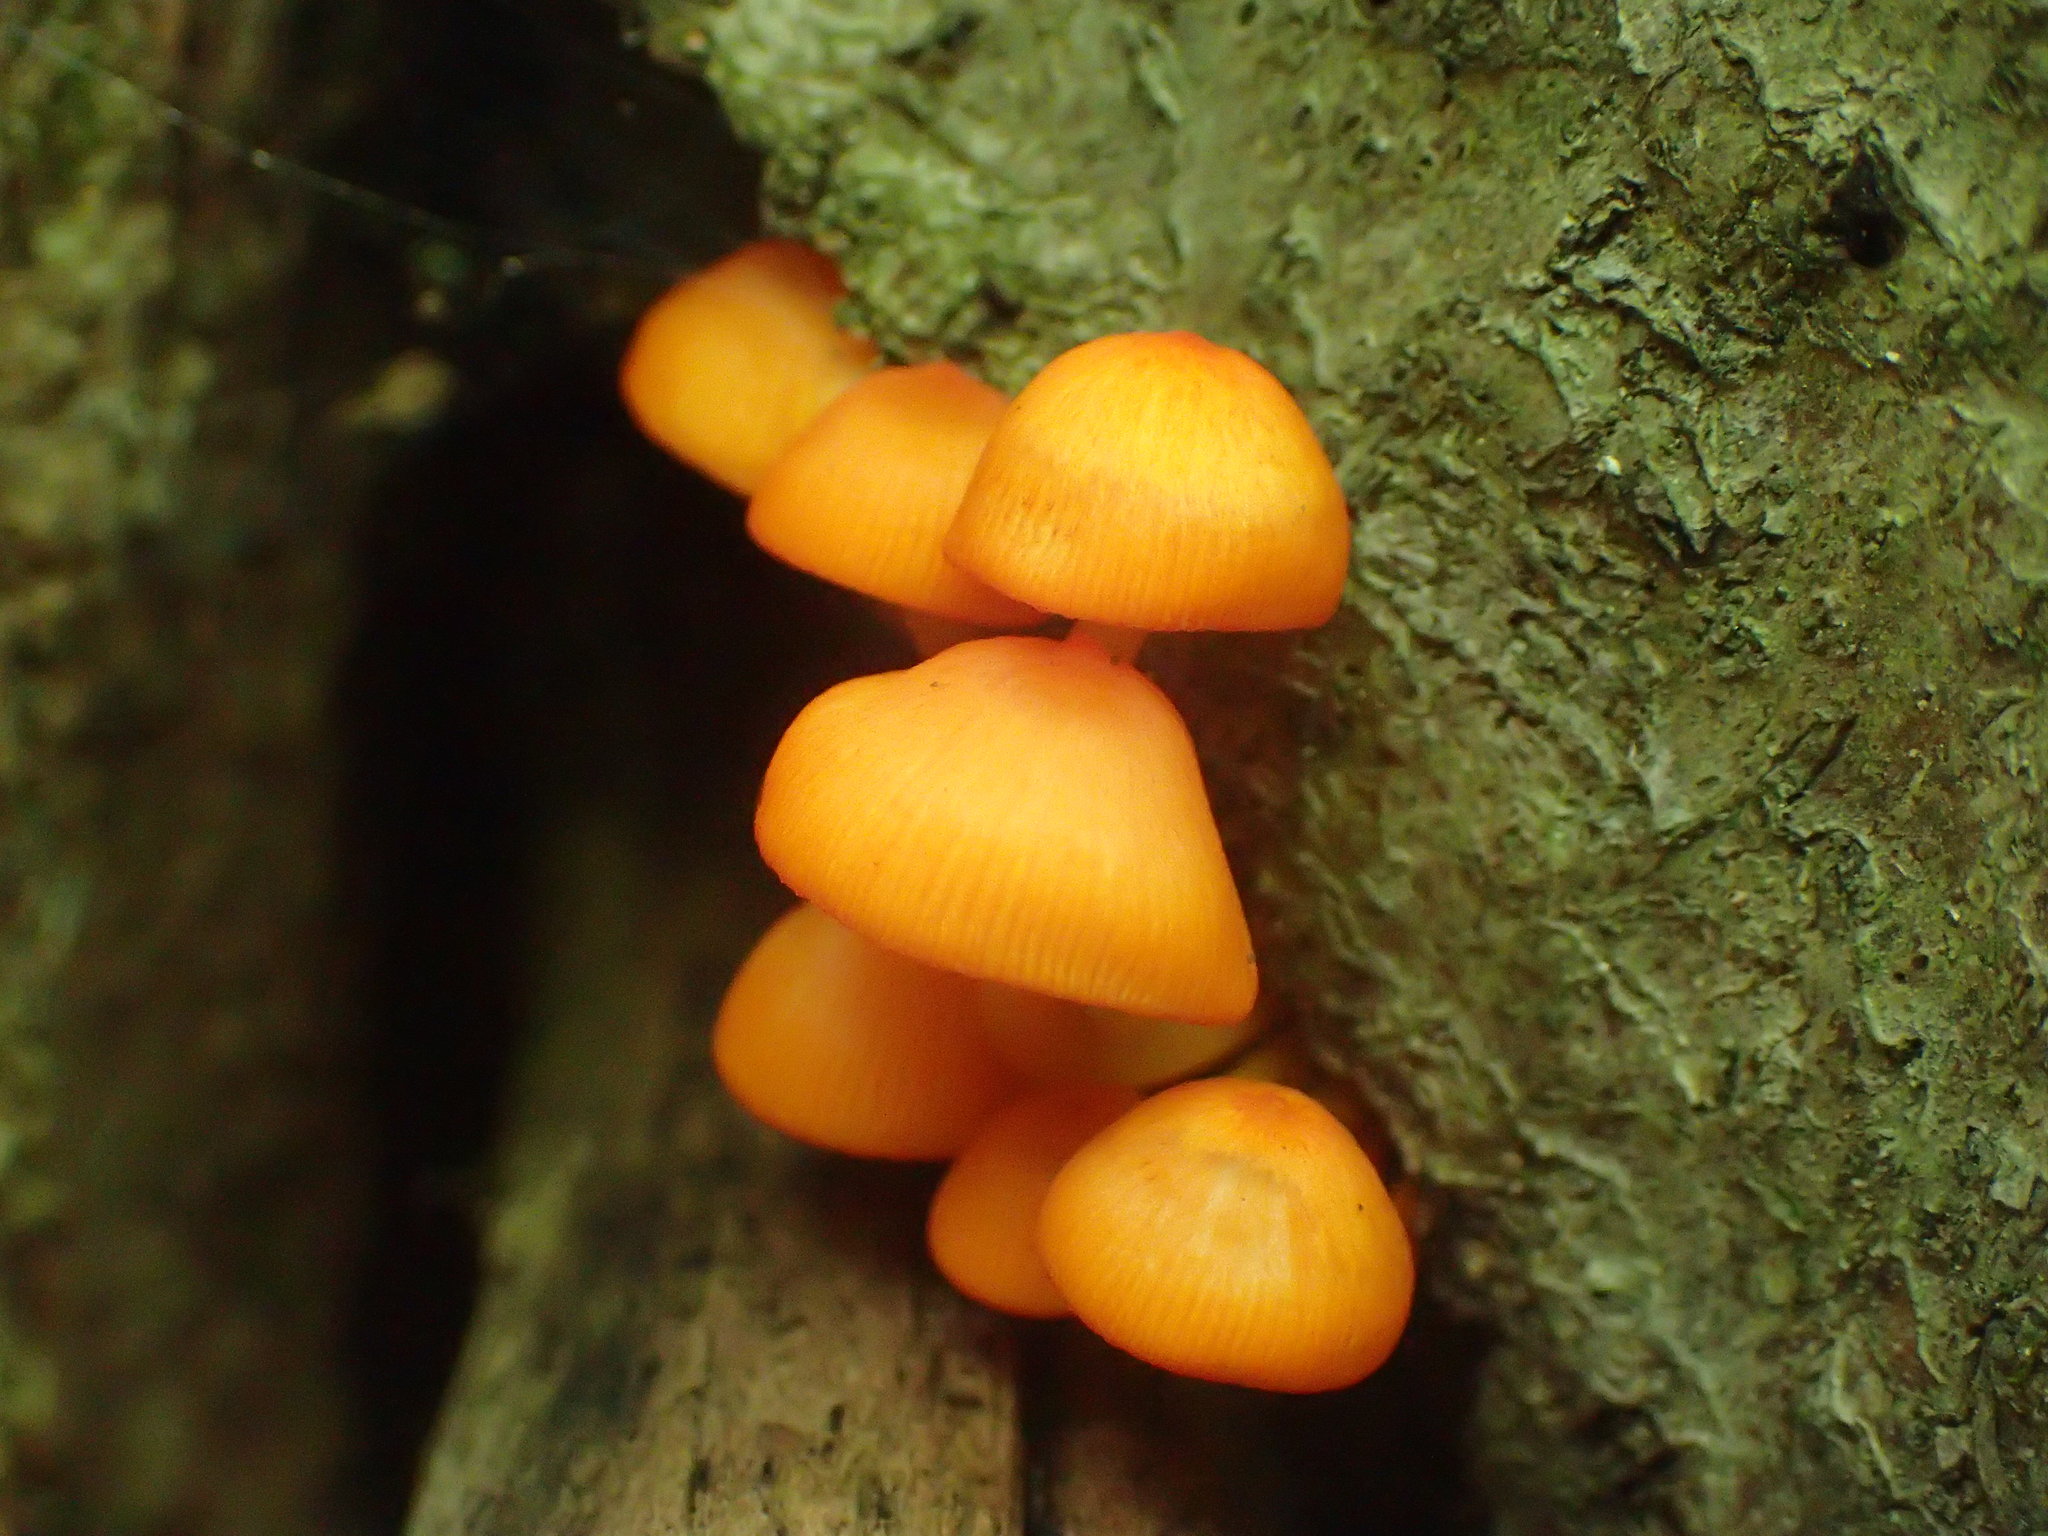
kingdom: Fungi
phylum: Basidiomycota
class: Agaricomycetes
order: Agaricales
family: Mycenaceae
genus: Mycena
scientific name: Mycena leaiana
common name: Orange mycena
